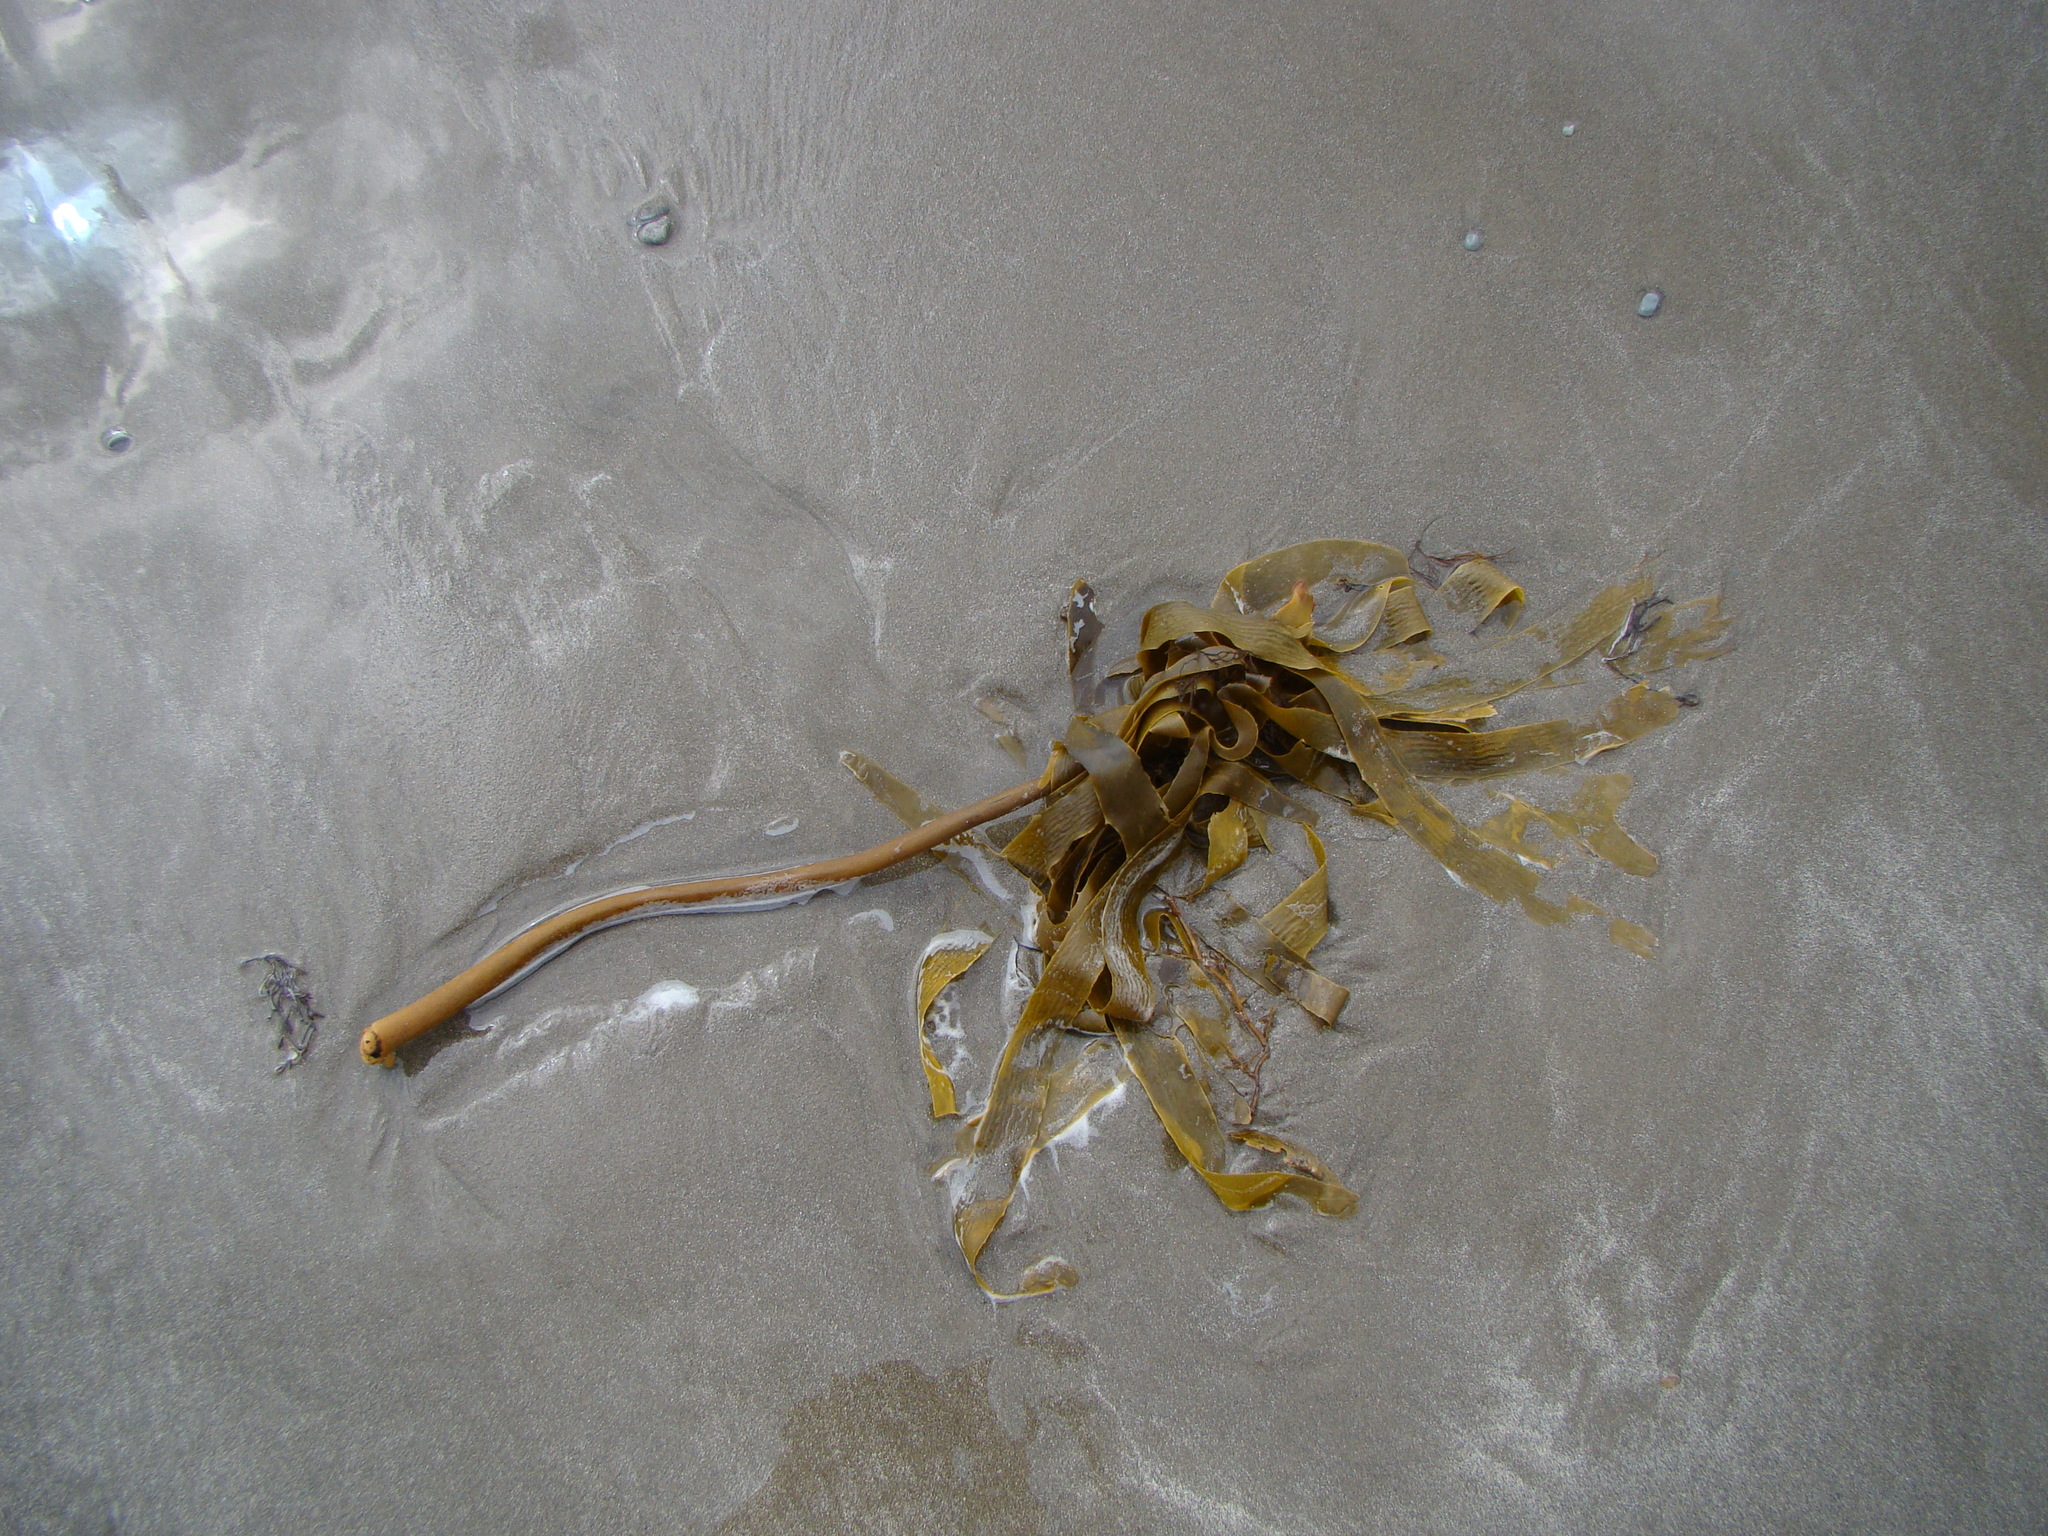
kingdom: Chromista
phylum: Ochrophyta
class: Phaeophyceae
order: Laminariales
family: Lessoniaceae
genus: Ecklonia
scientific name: Ecklonia radiata
